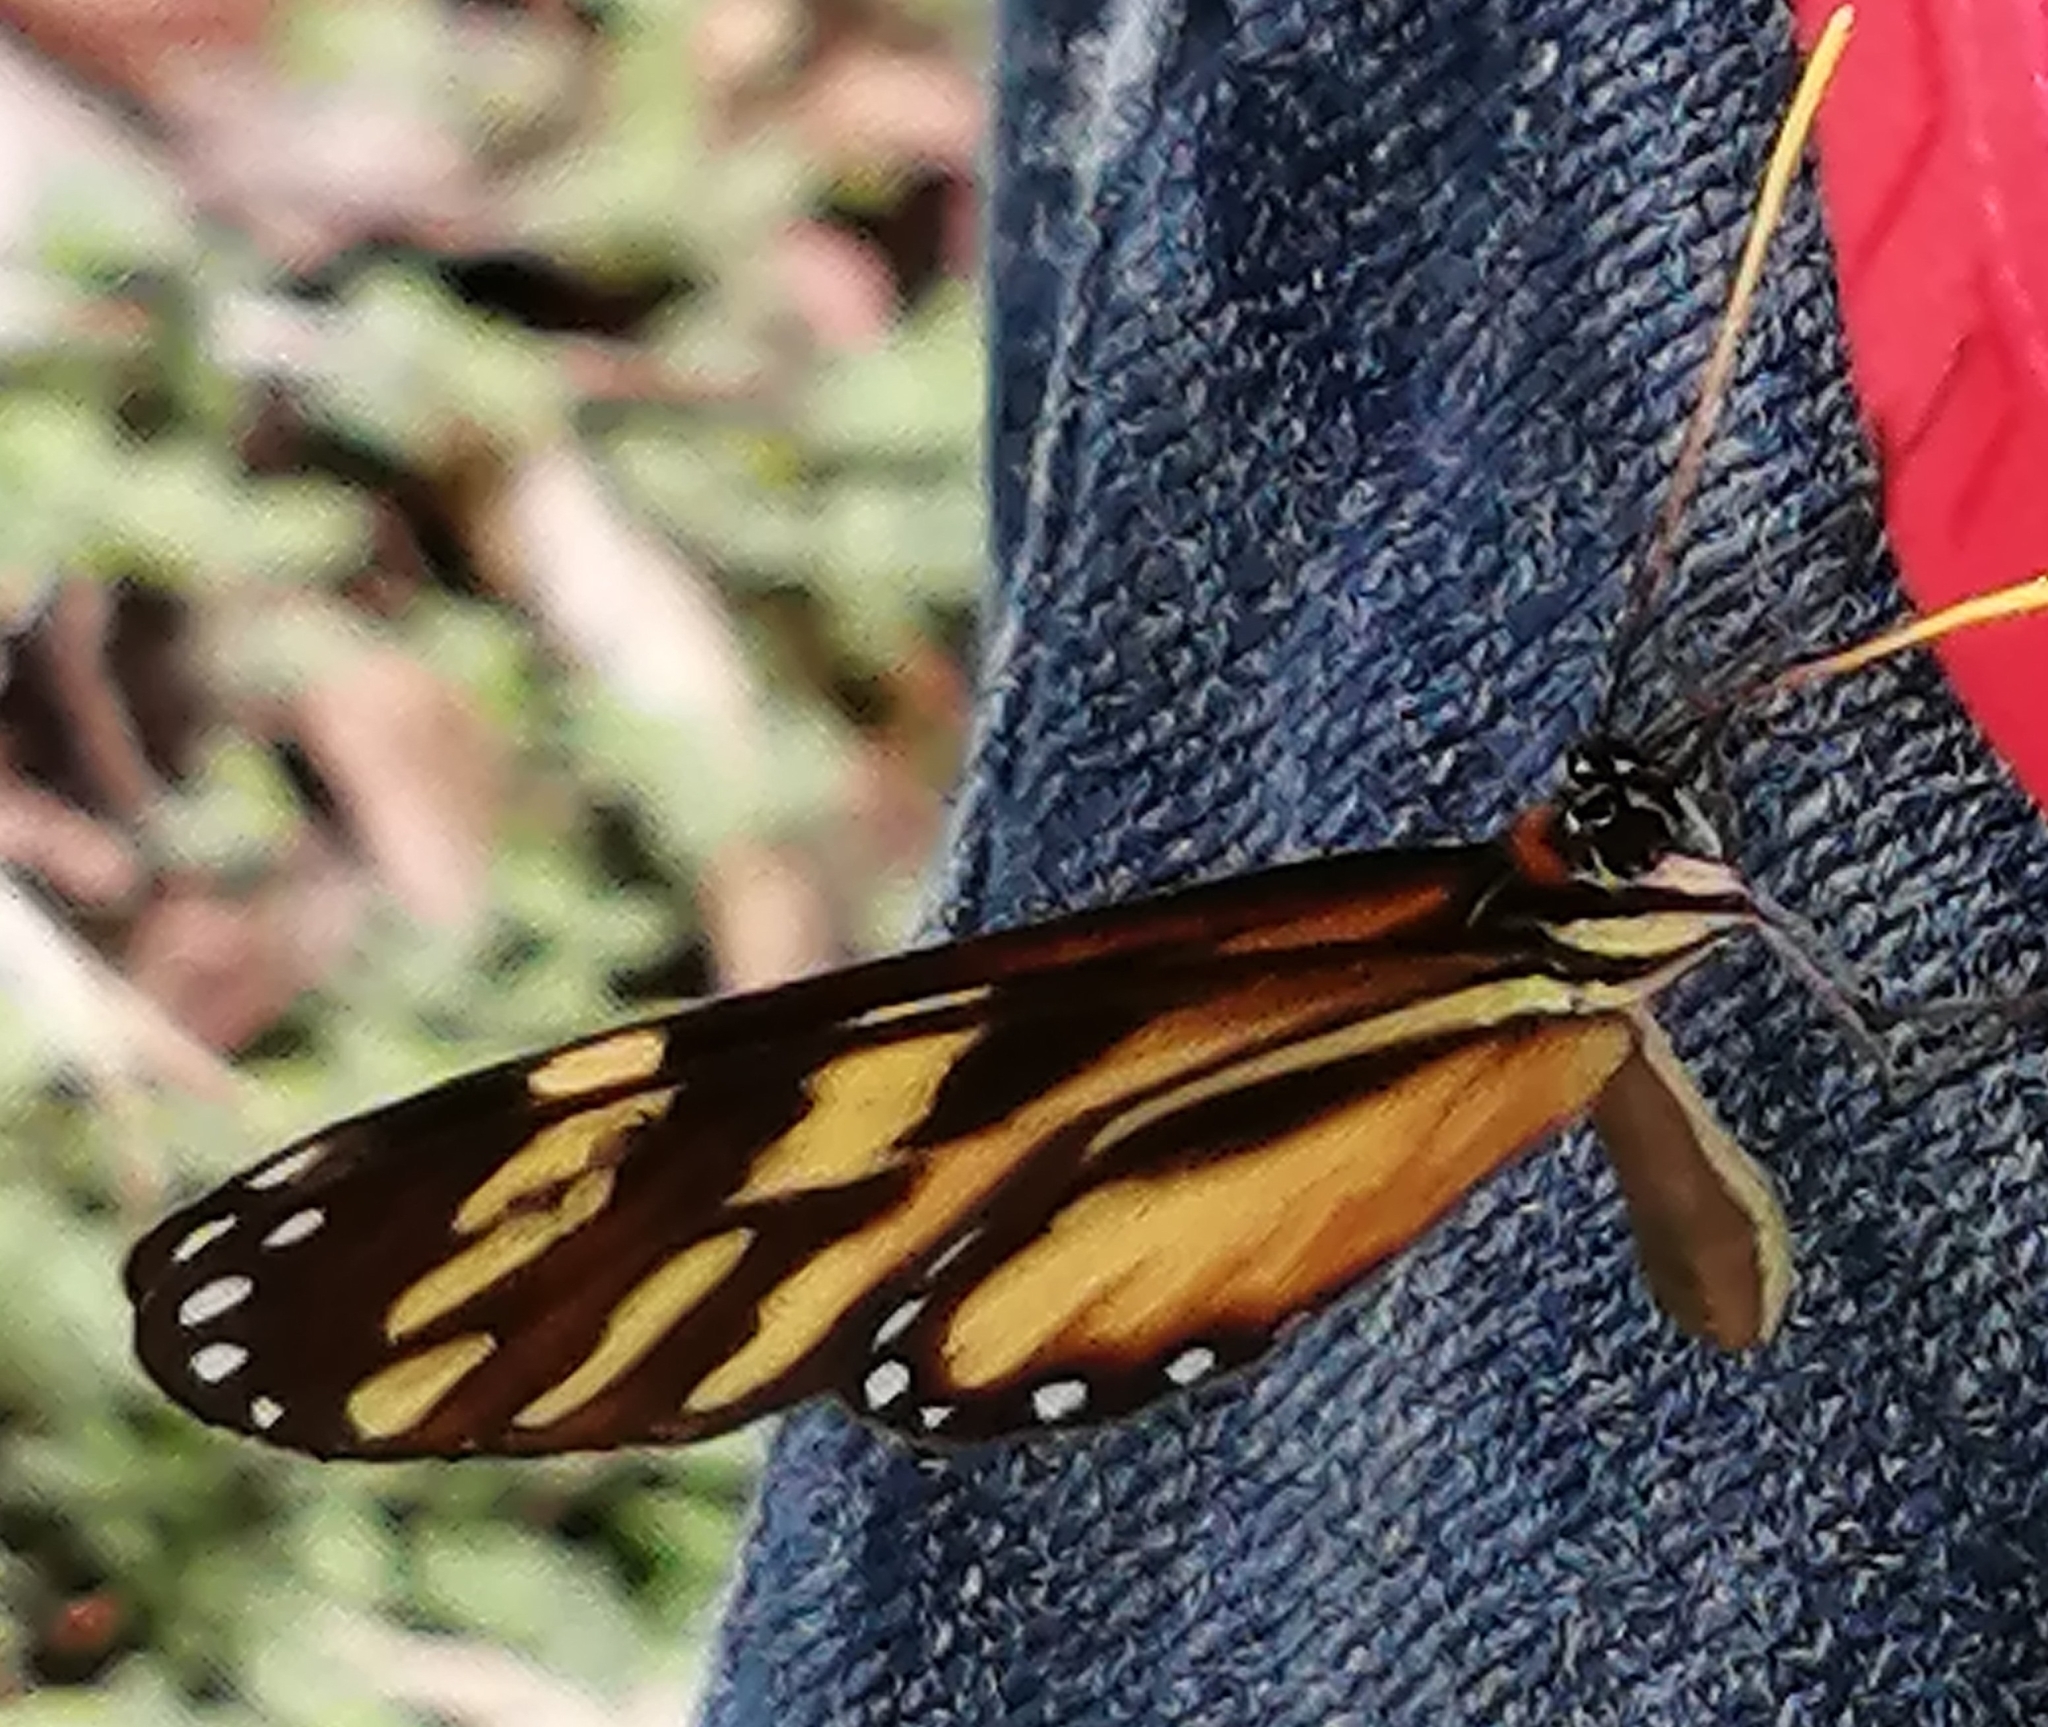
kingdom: Animalia
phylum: Arthropoda
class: Insecta
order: Lepidoptera
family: Nymphalidae
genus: Ithomia
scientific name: Ithomia heraldica
